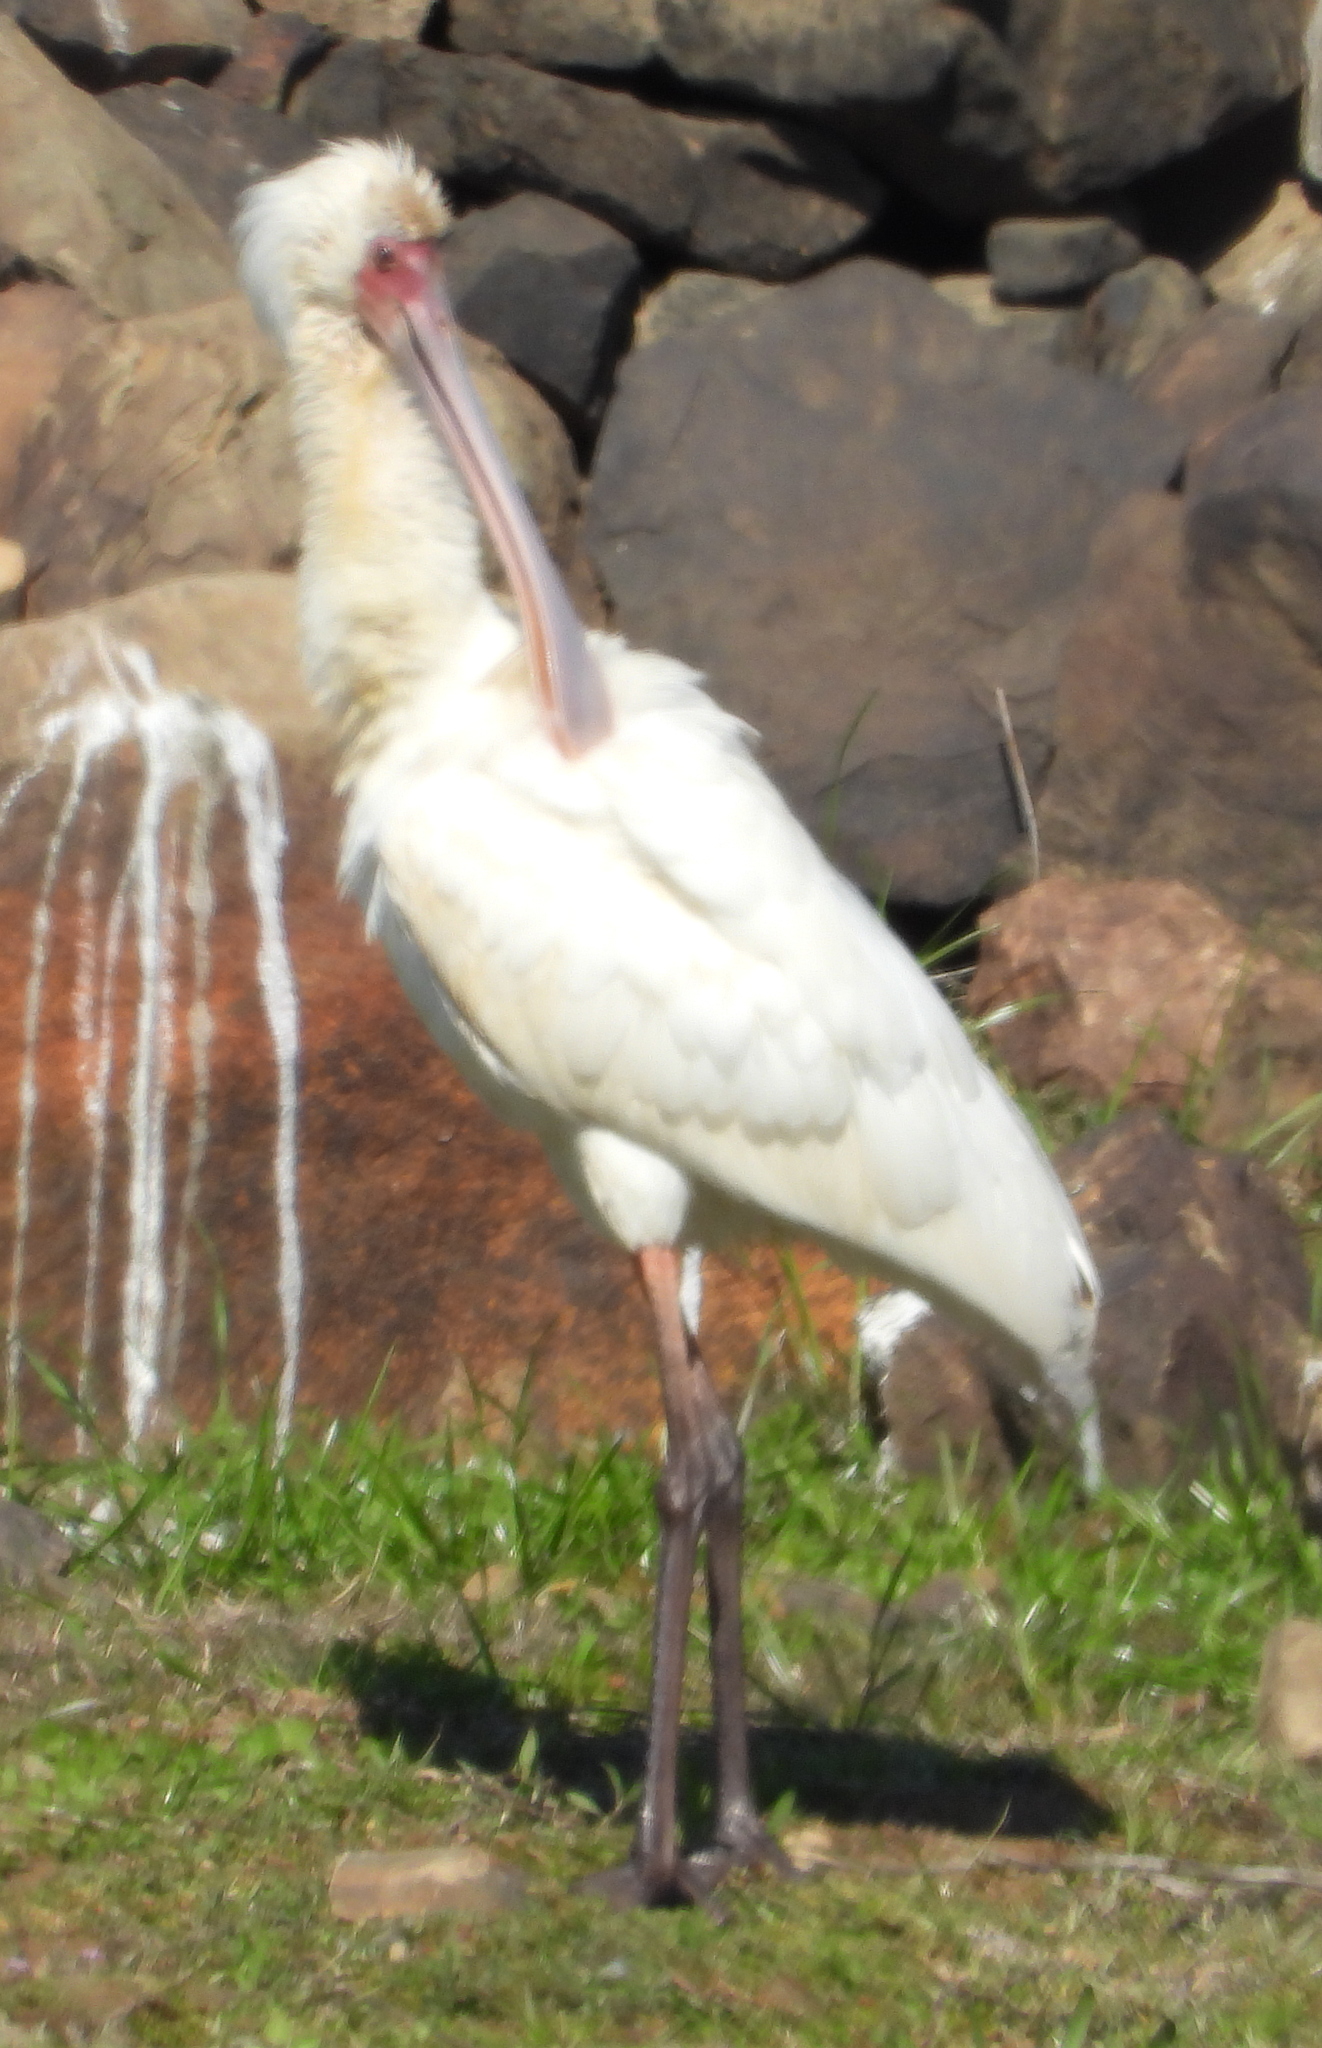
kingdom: Animalia
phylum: Chordata
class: Aves
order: Pelecaniformes
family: Threskiornithidae
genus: Platalea
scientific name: Platalea alba
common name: African spoonbill
